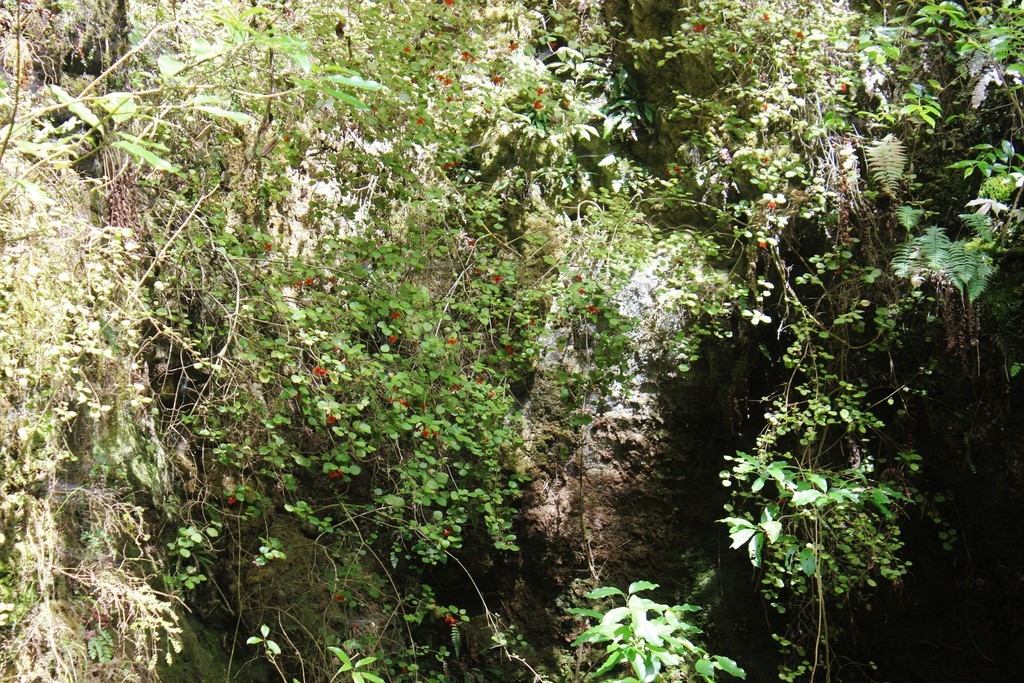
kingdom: Plantae
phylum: Tracheophyta
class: Magnoliopsida
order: Lamiales
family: Gesneriaceae
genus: Rhabdothamnus
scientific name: Rhabdothamnus solandri
